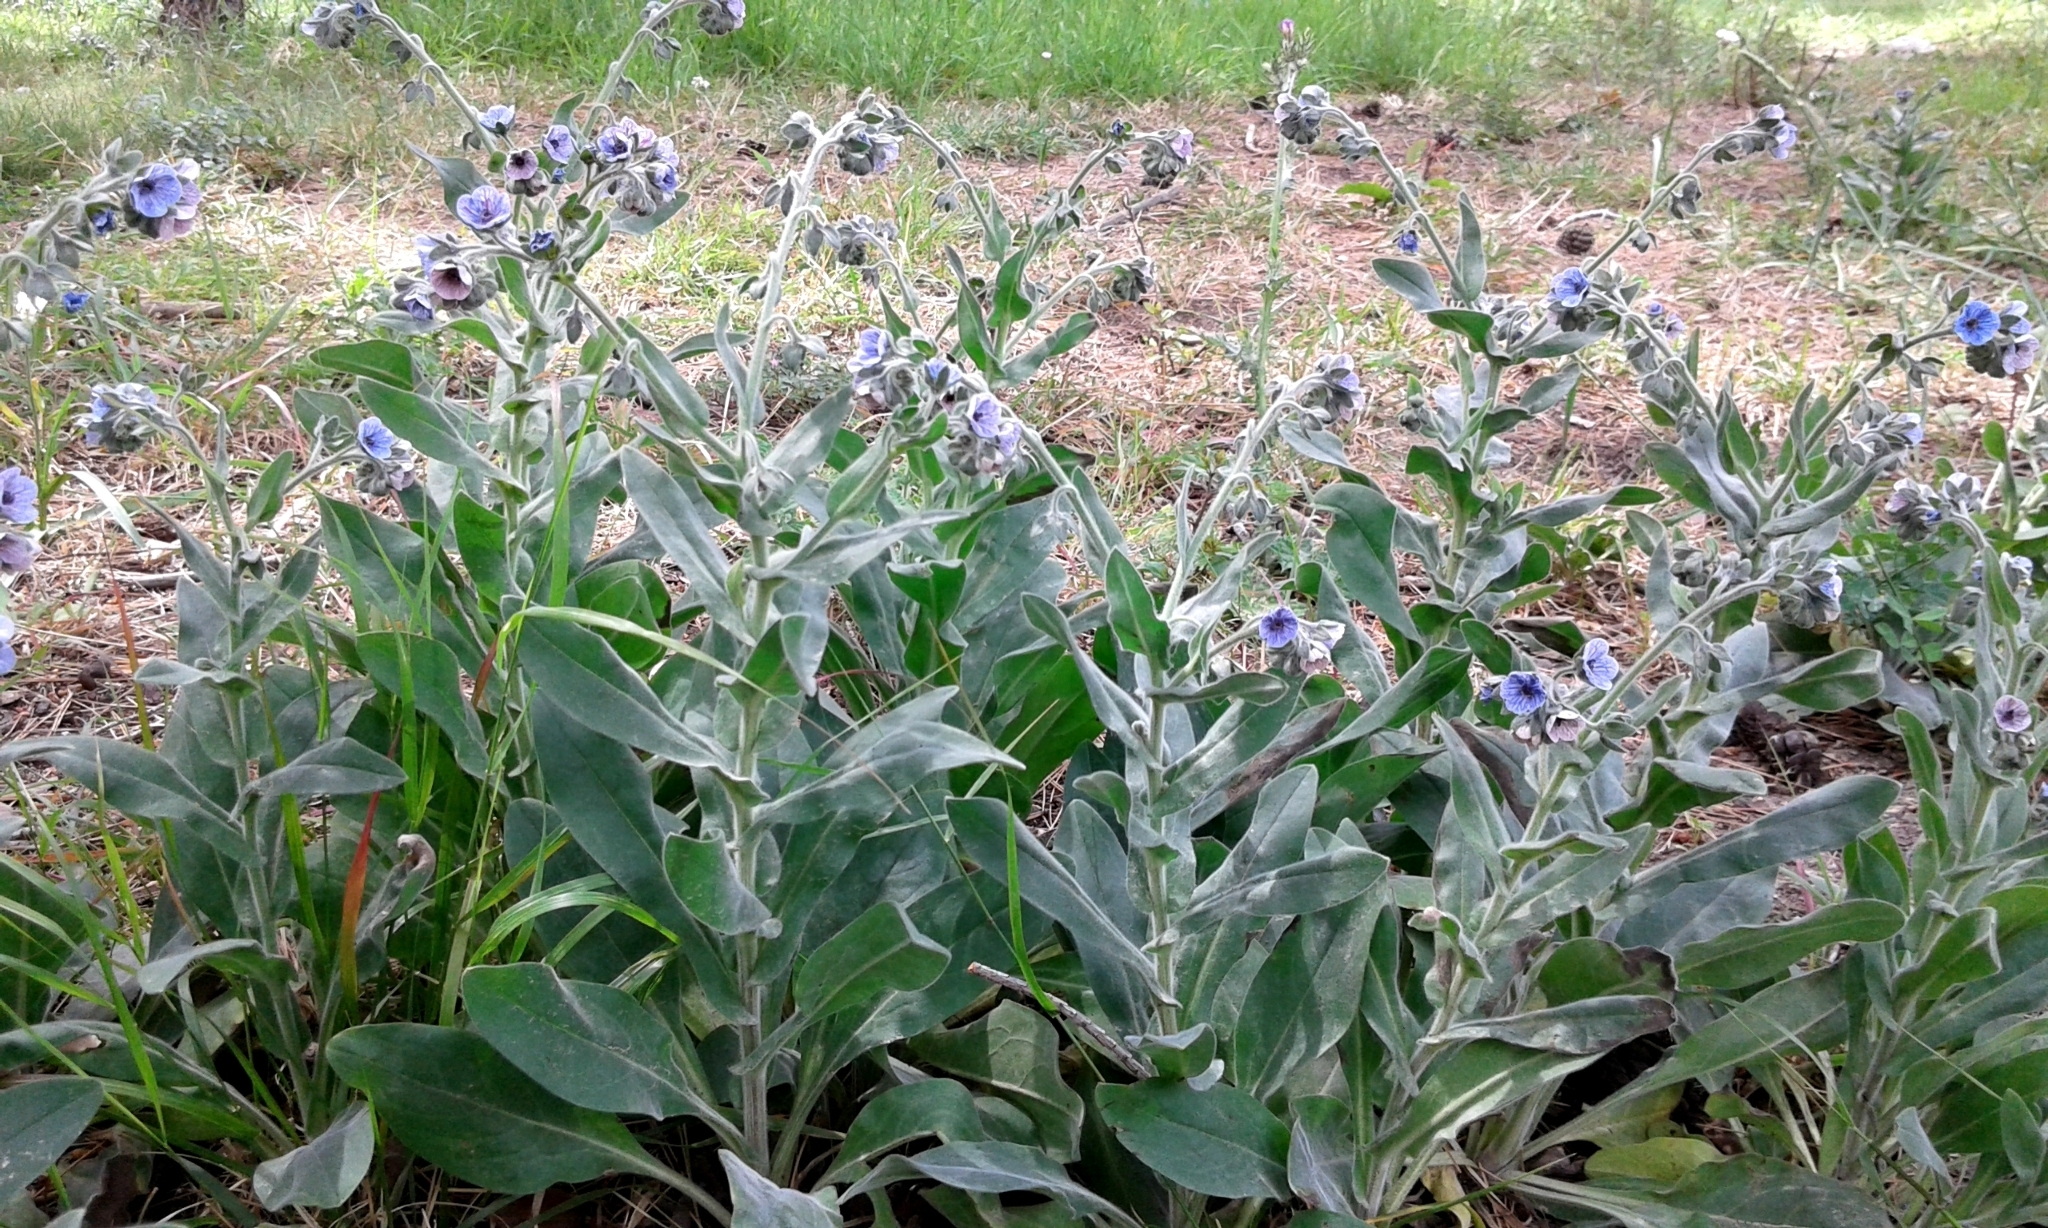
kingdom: Plantae
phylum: Tracheophyta
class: Magnoliopsida
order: Boraginales
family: Boraginaceae
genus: Cynoglossum
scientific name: Cynoglossum creticum
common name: Blue hound's tongue
